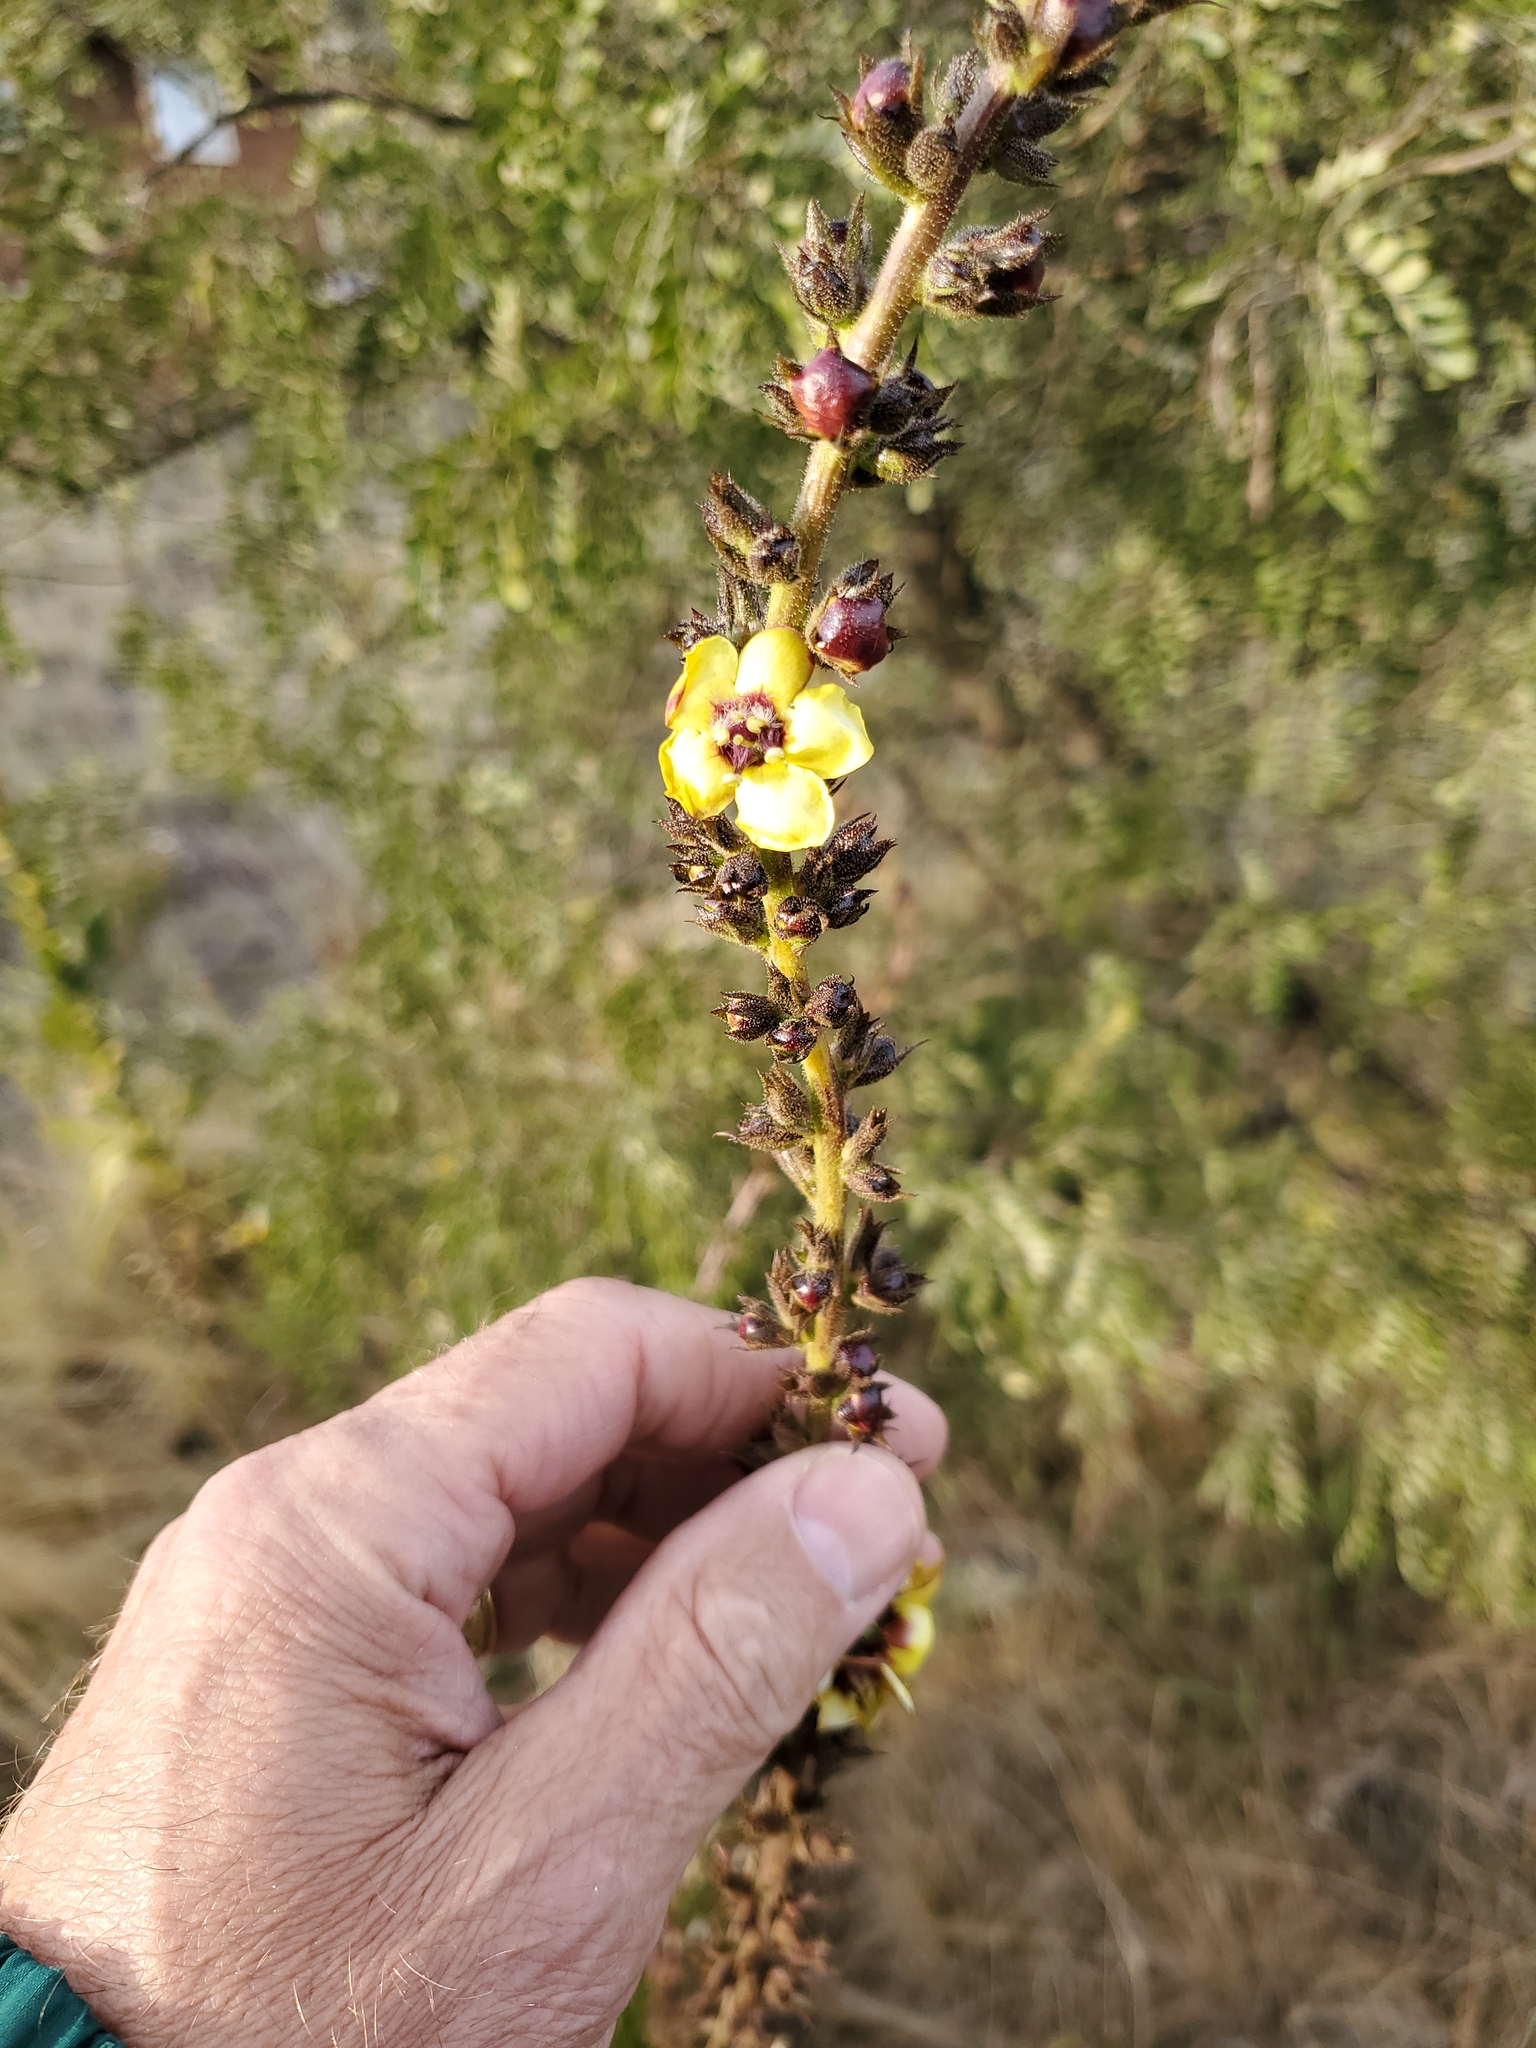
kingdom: Plantae
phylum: Tracheophyta
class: Magnoliopsida
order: Lamiales
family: Scrophulariaceae
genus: Verbascum
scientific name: Verbascum virgatum
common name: Twiggy mullein
